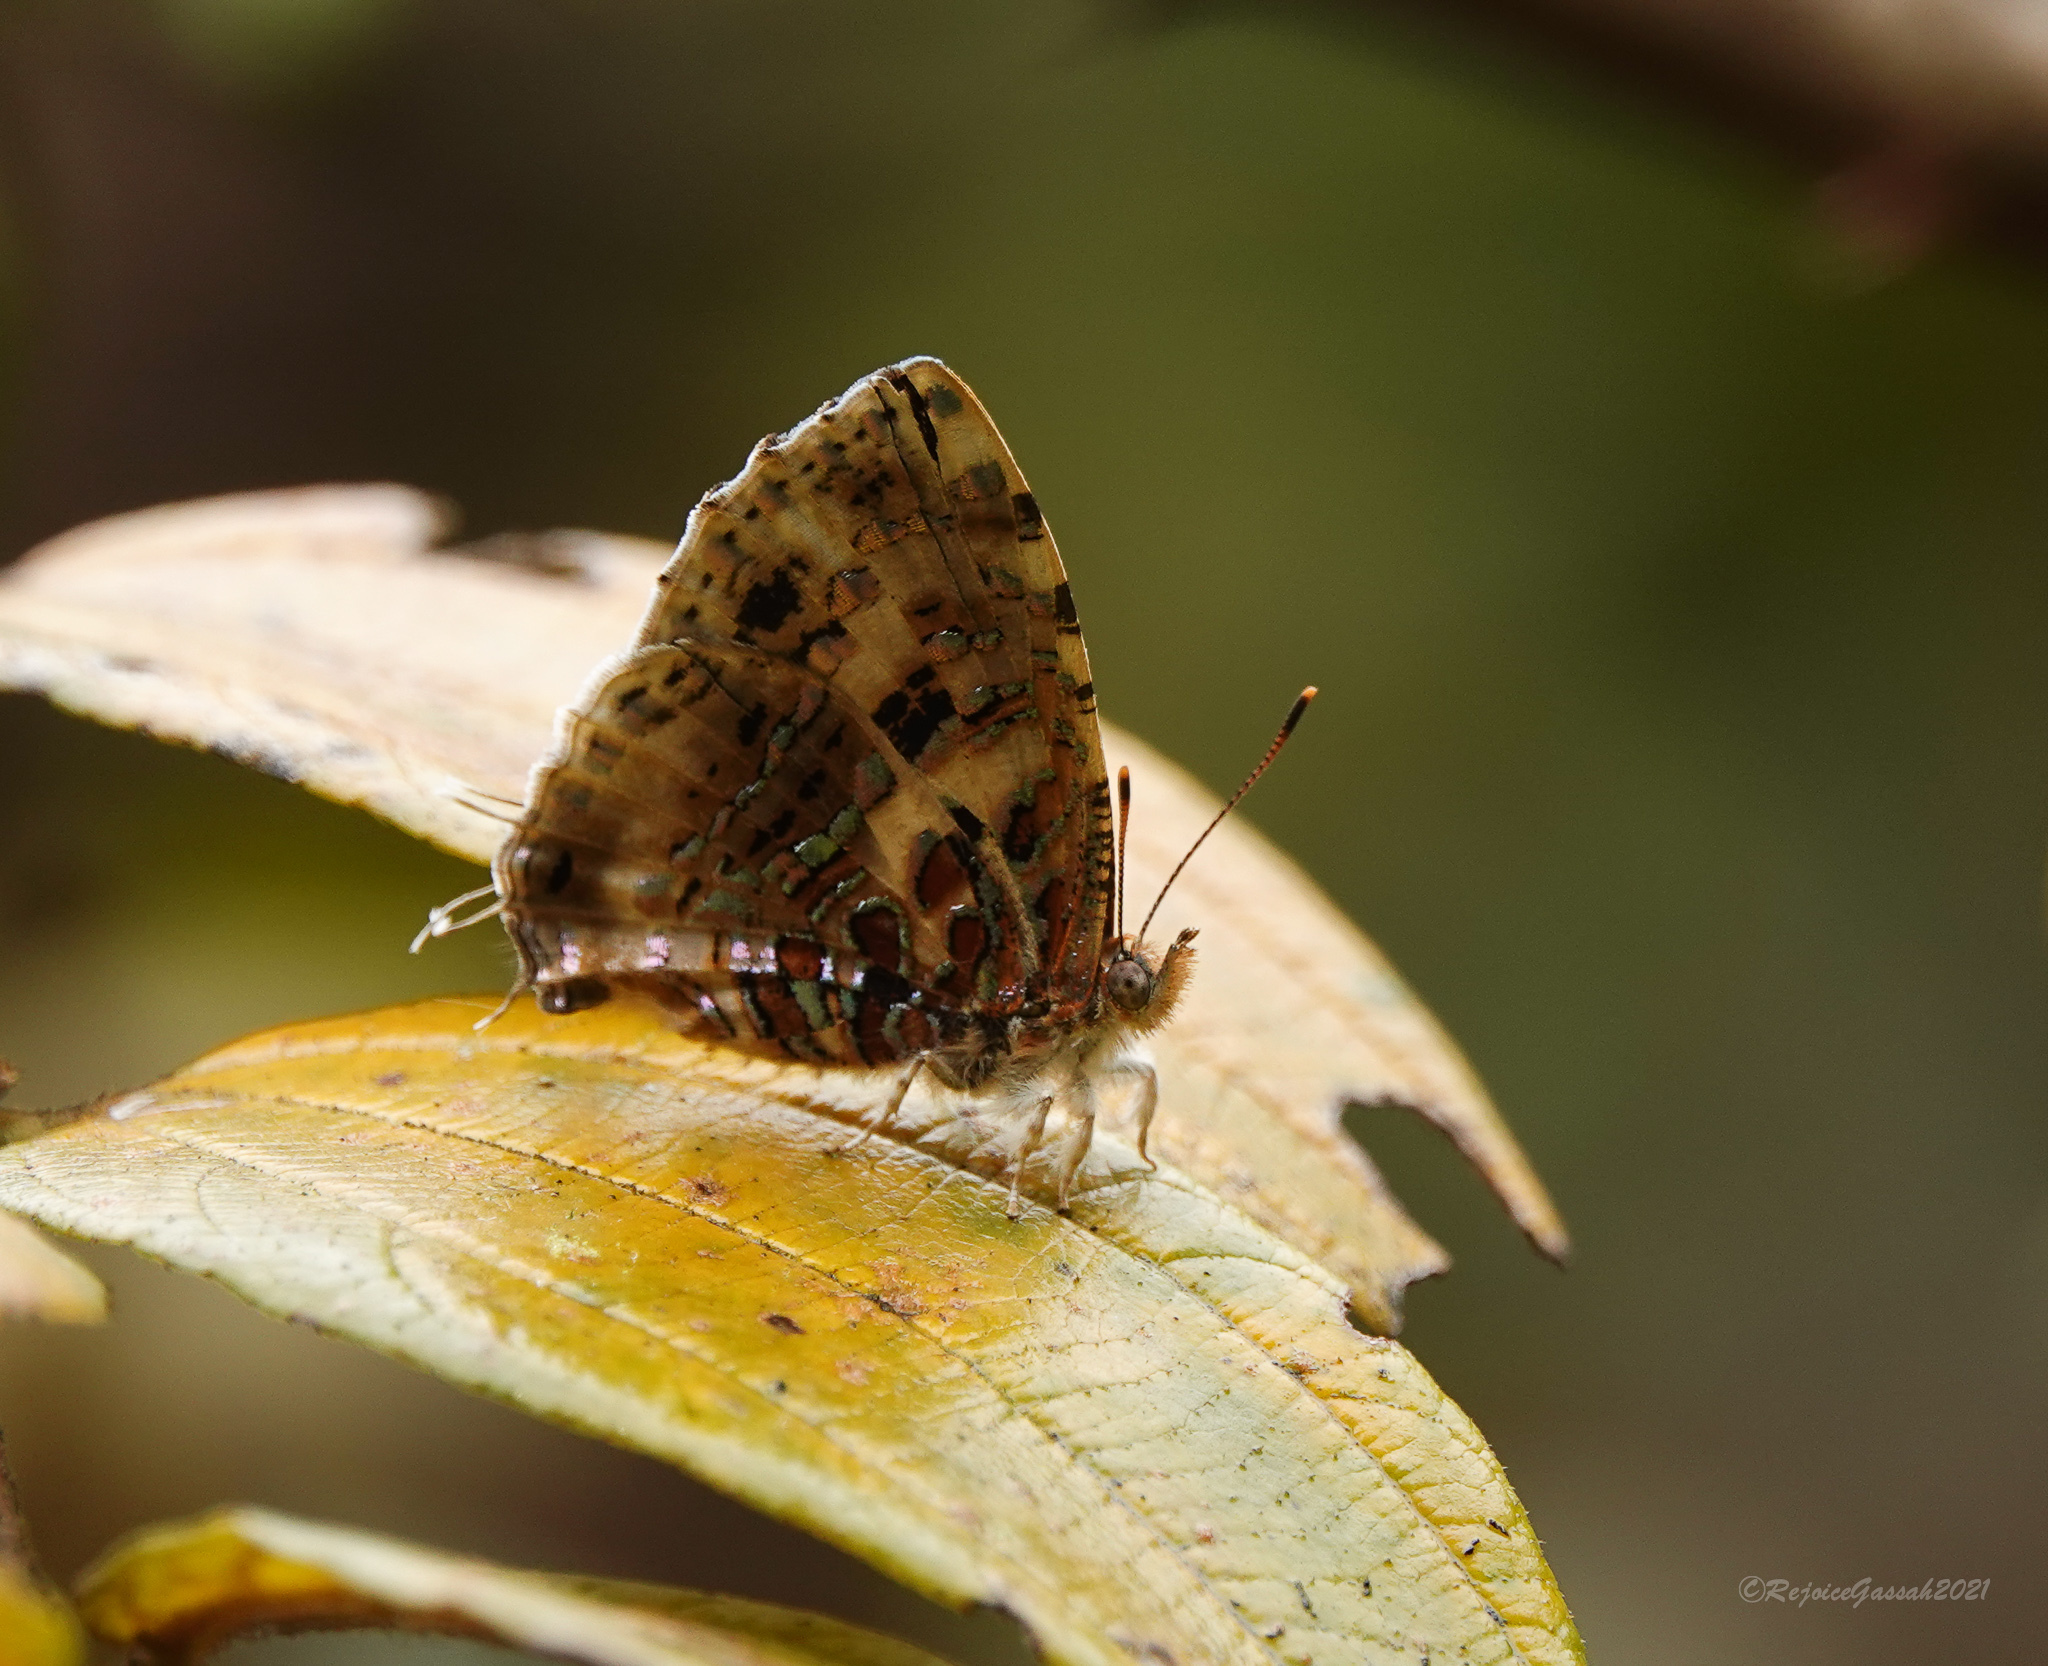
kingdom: Animalia
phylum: Arthropoda
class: Insecta
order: Lepidoptera
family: Lycaenidae
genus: Catapaecilma
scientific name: Catapaecilma major
